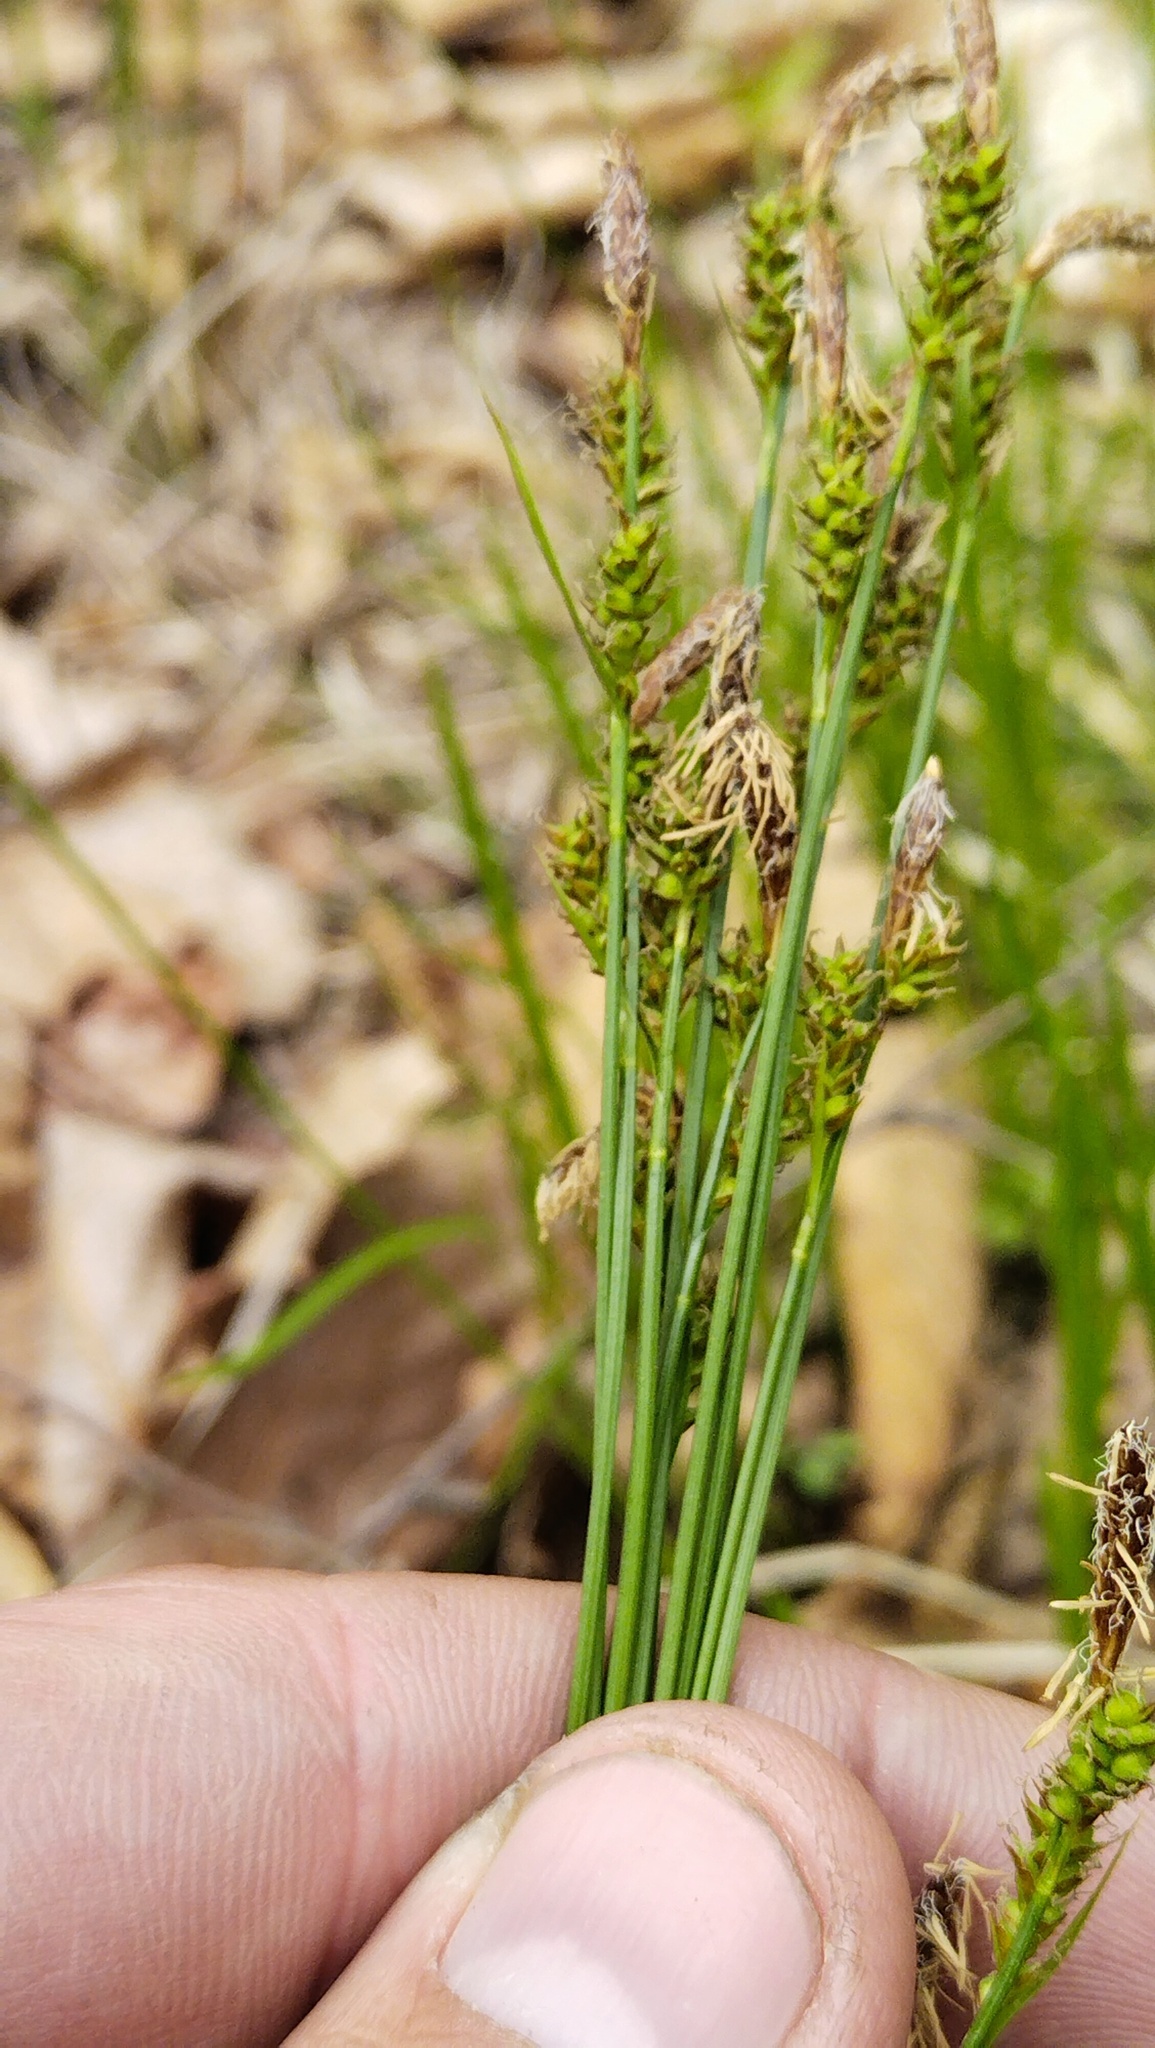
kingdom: Plantae
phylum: Tracheophyta
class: Liliopsida
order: Poales
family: Cyperaceae
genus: Carex
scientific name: Carex umbrosa
